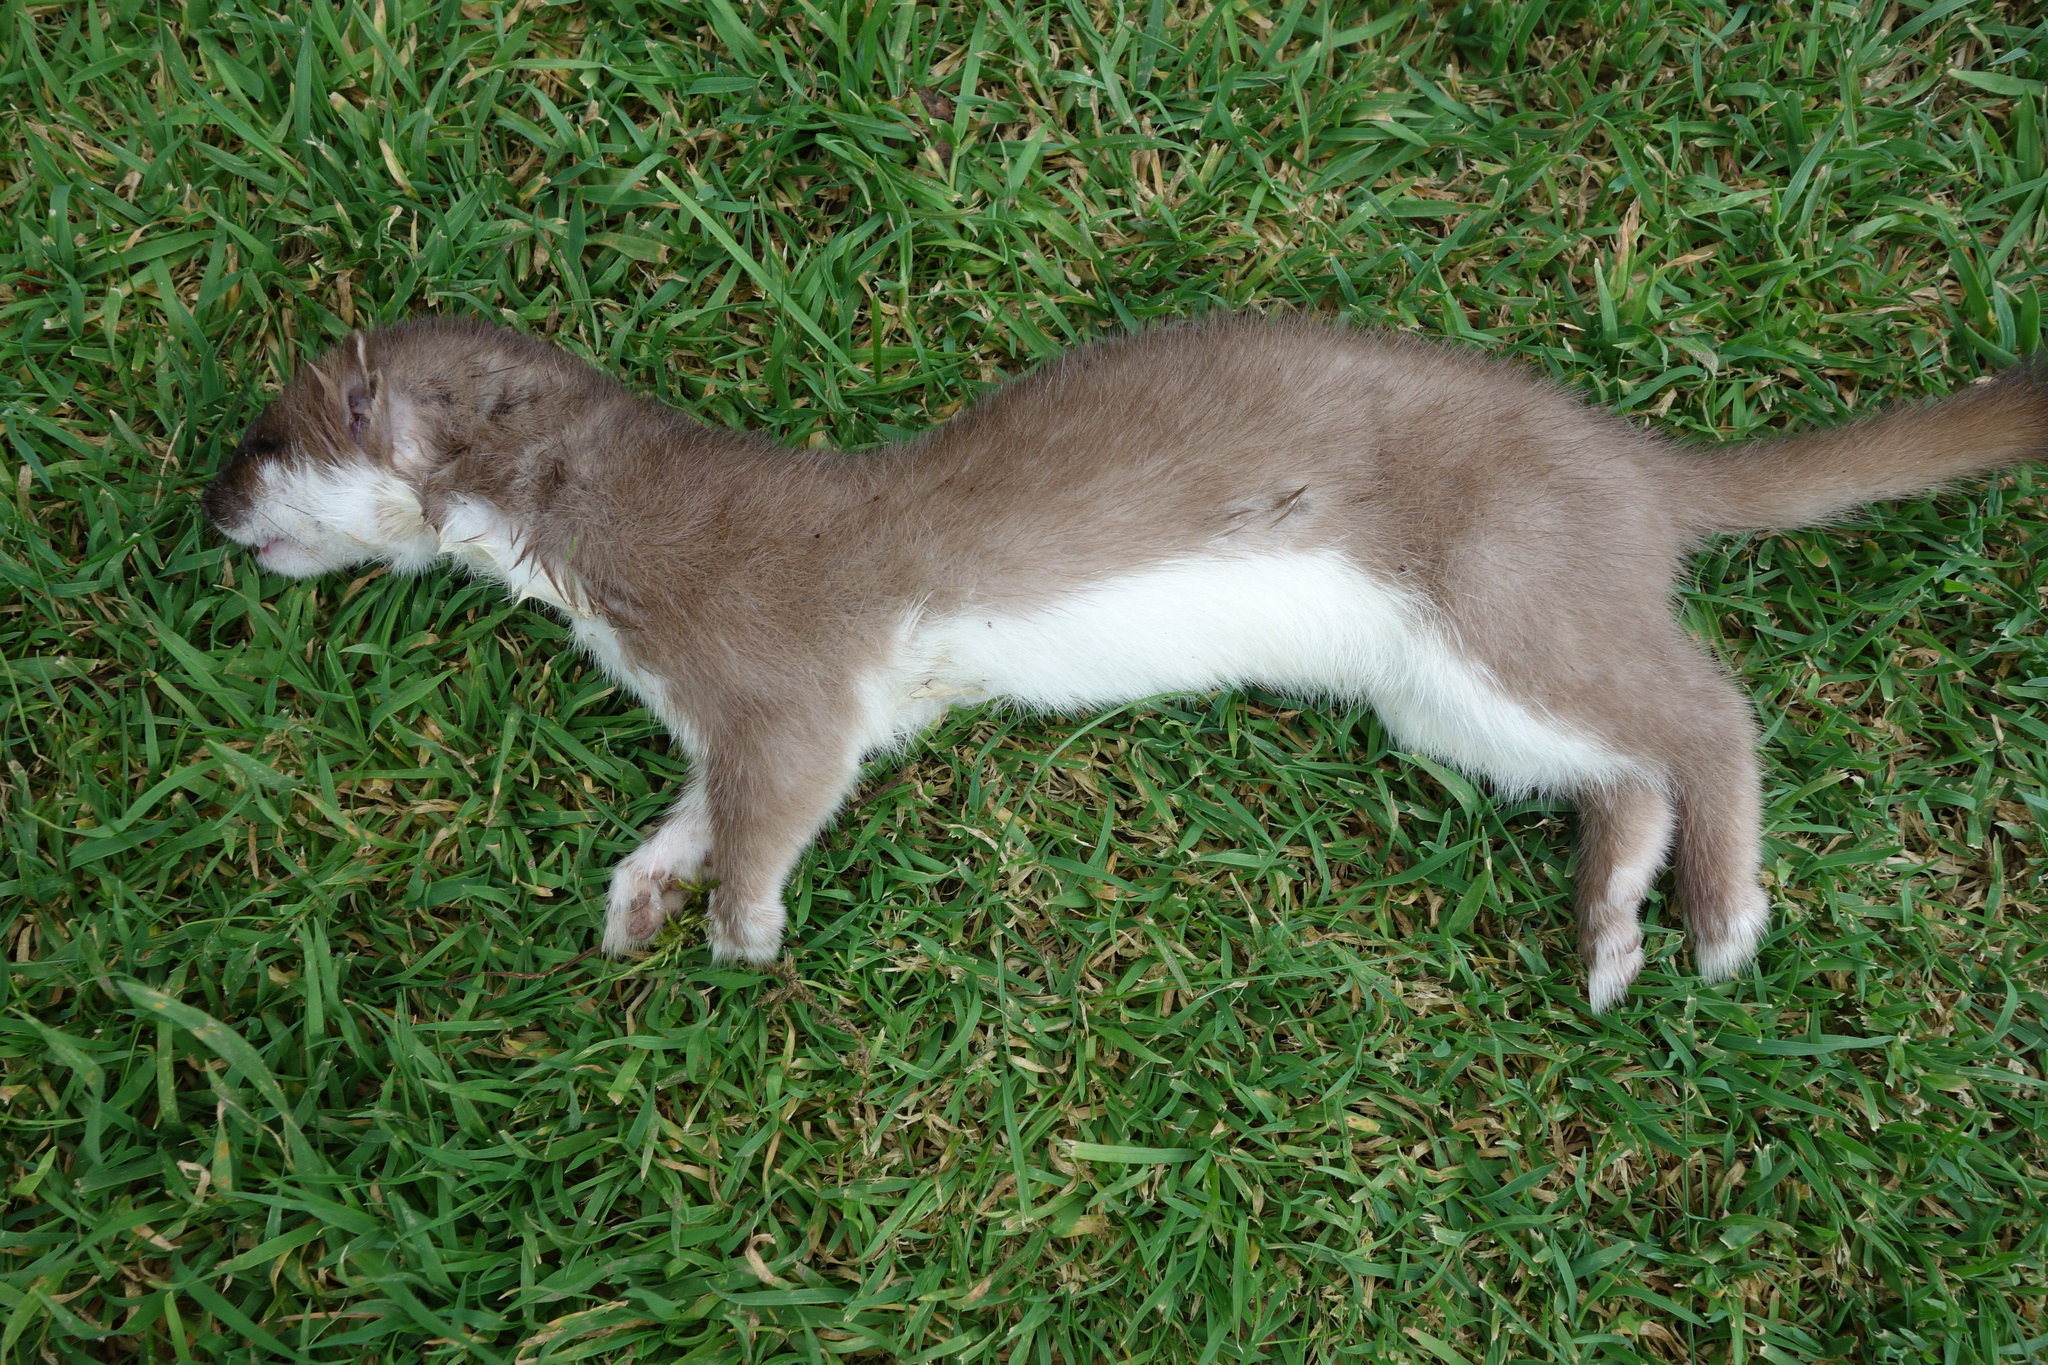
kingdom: Animalia
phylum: Chordata
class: Mammalia
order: Carnivora
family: Mustelidae
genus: Mustela
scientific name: Mustela erminea
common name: Stoat
